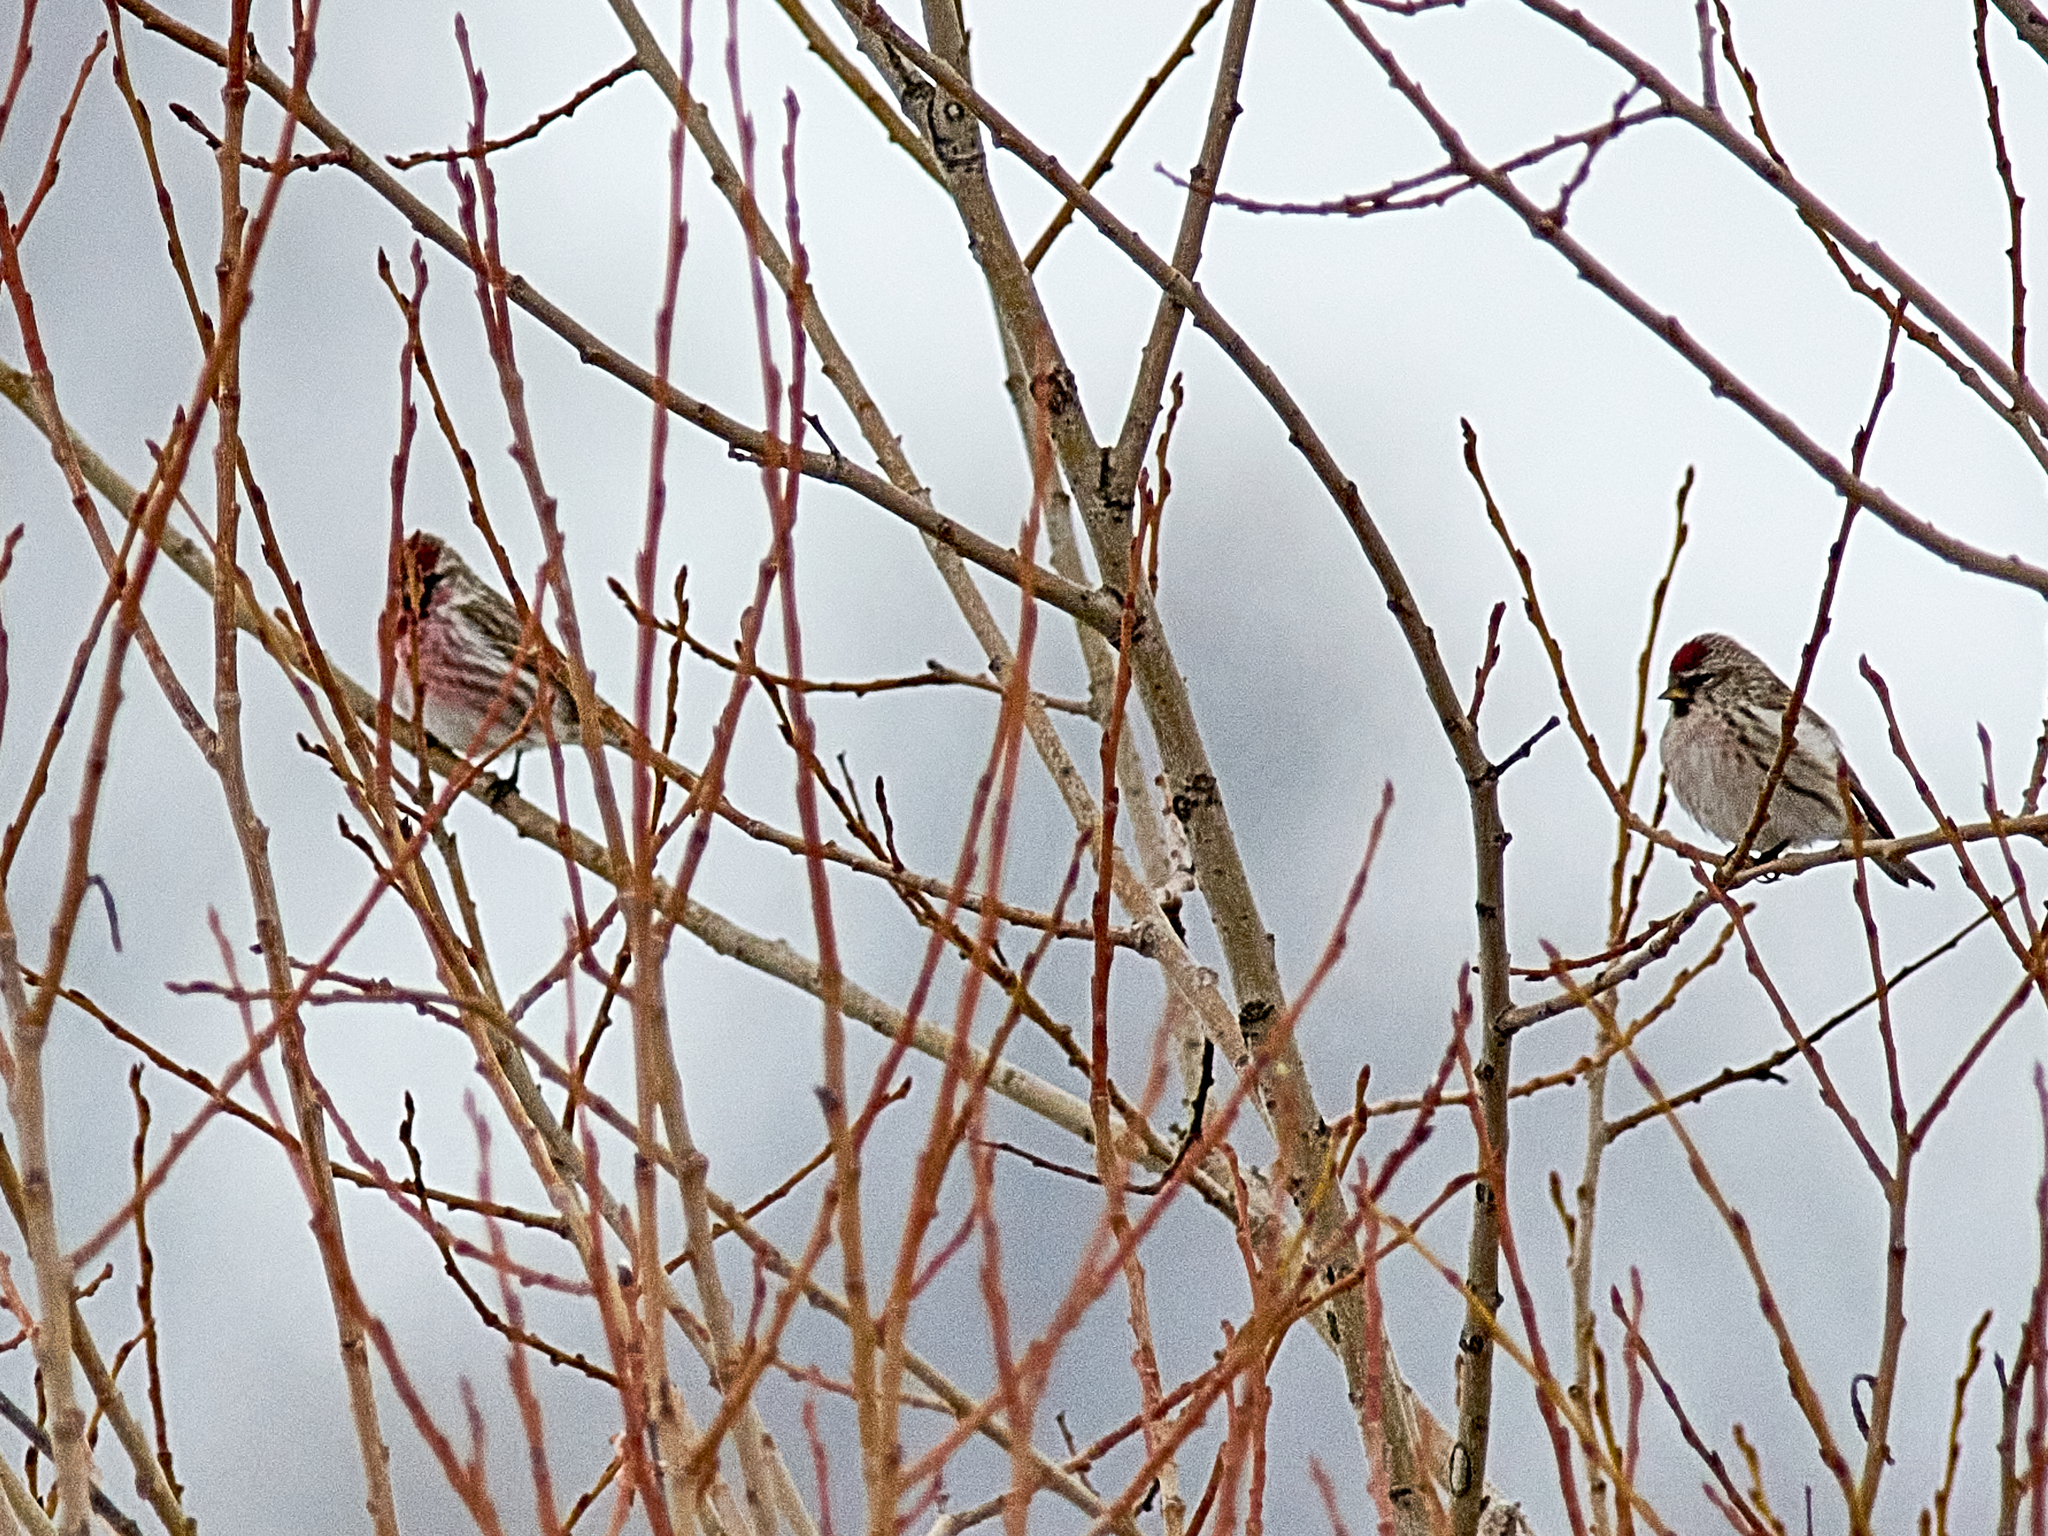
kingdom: Animalia
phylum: Chordata
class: Aves
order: Passeriformes
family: Fringillidae
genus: Acanthis
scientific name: Acanthis flammea
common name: Common redpoll
